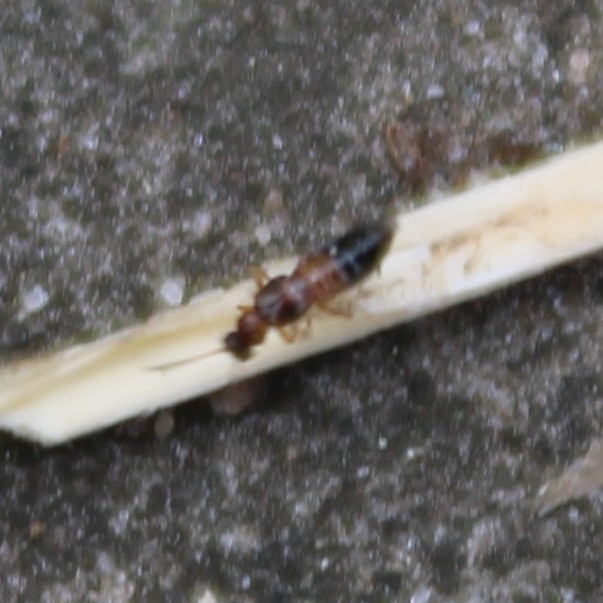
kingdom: Animalia
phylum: Arthropoda
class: Insecta
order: Coleoptera
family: Staphylinidae
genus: Meronera
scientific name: Meronera venustula
